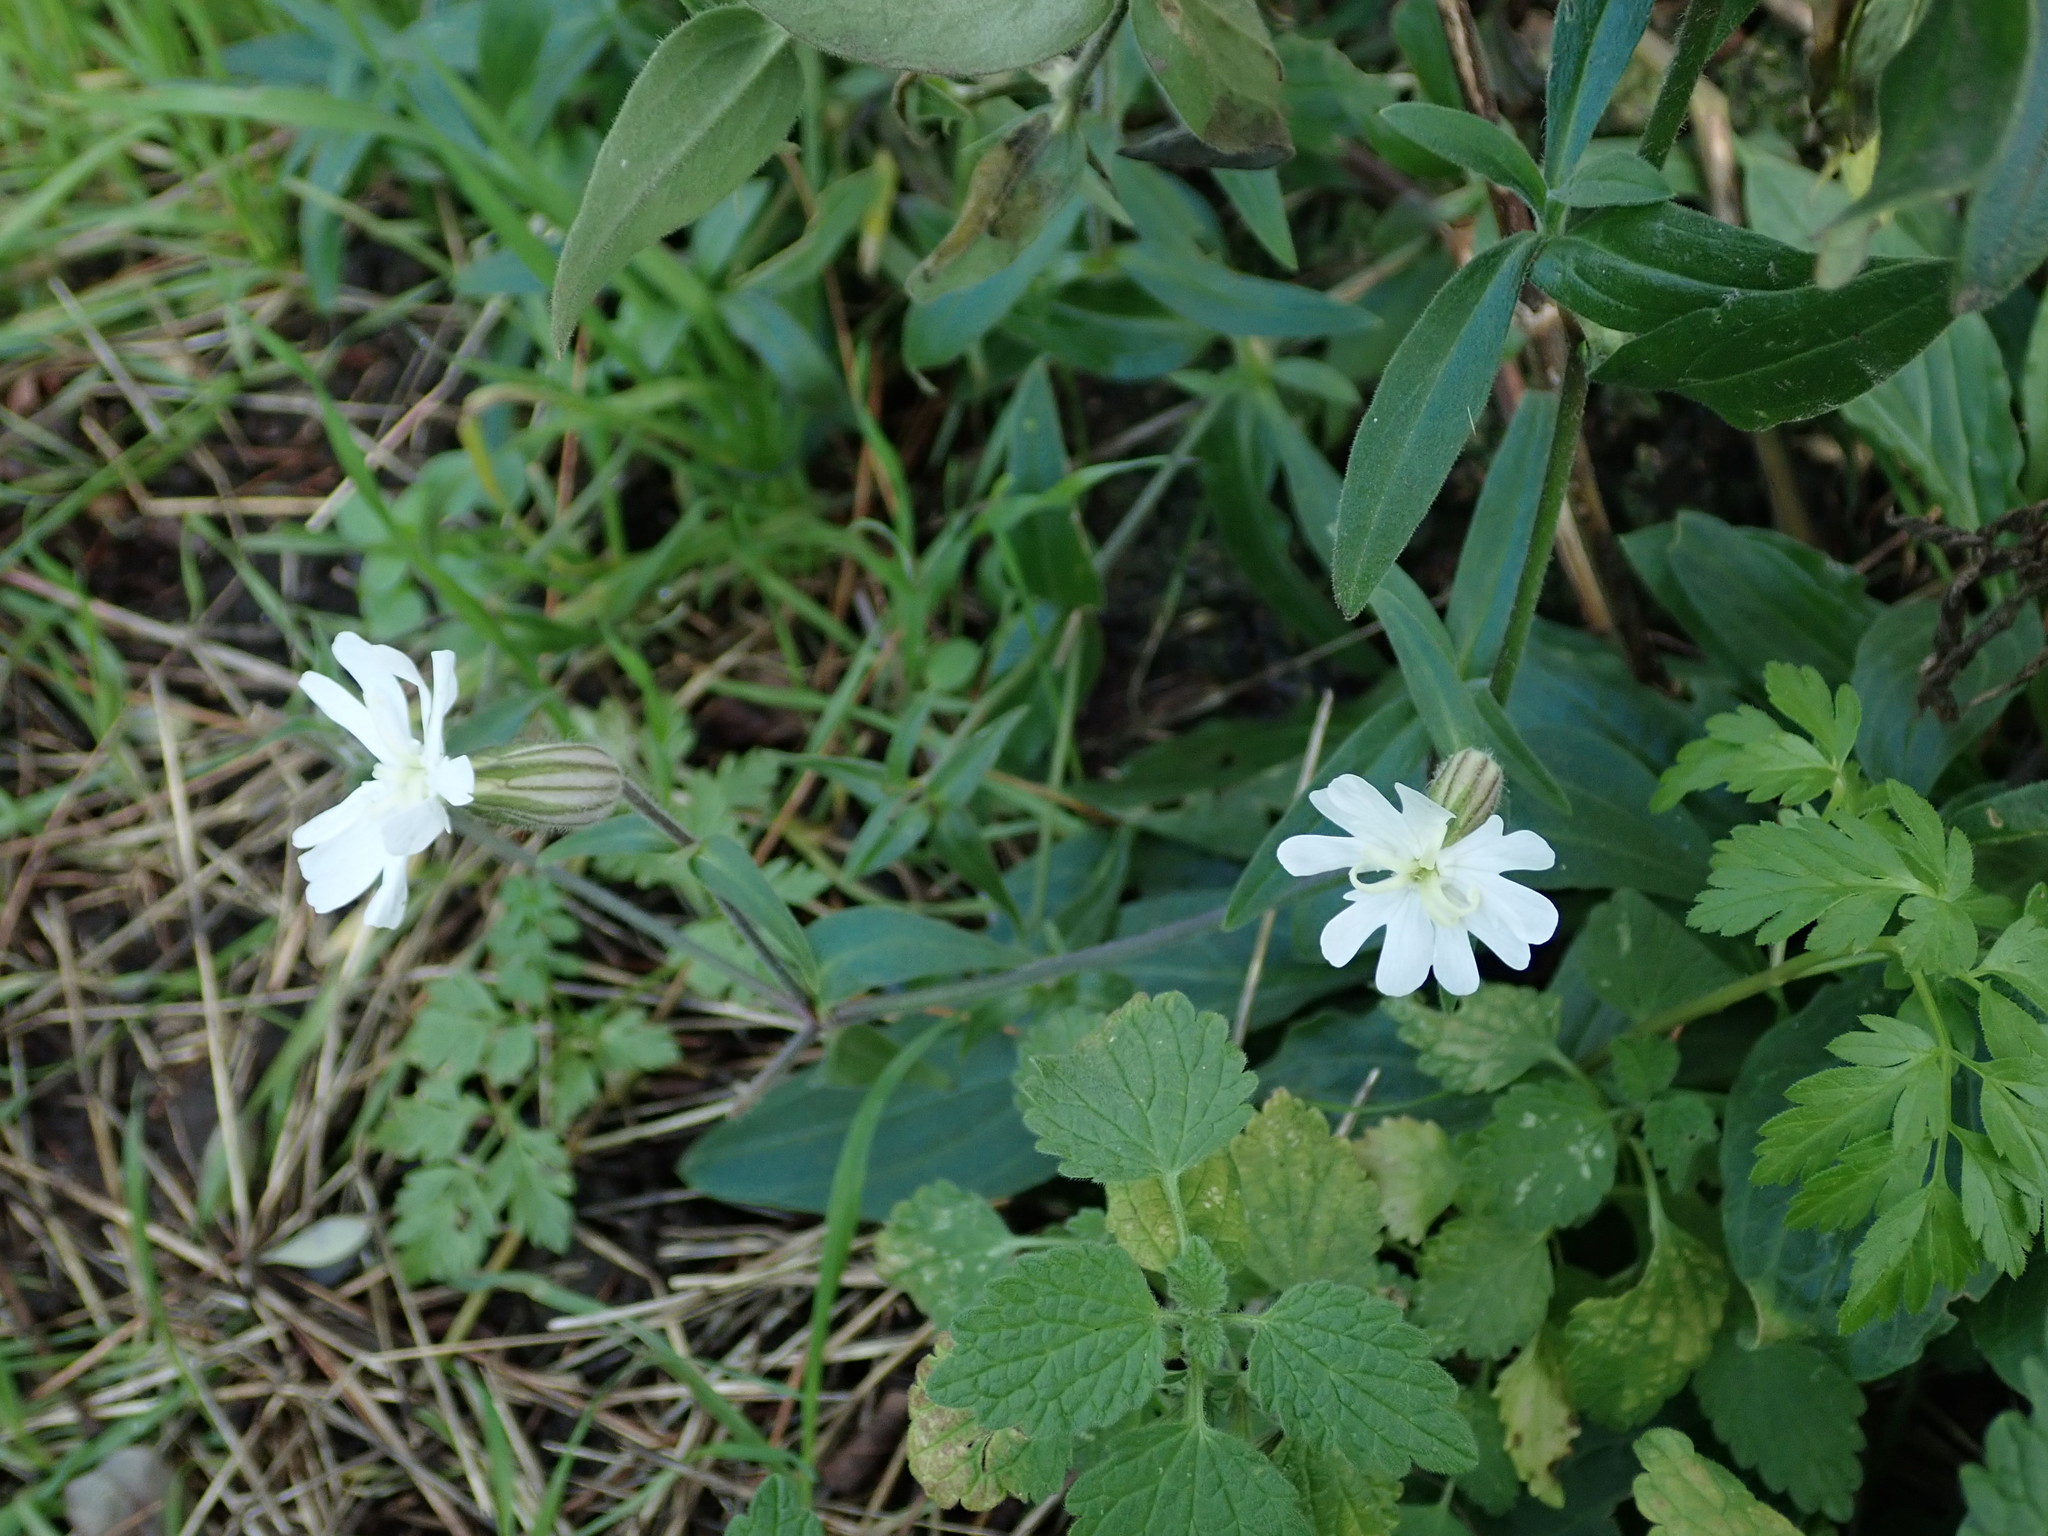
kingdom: Plantae
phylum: Tracheophyta
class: Magnoliopsida
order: Caryophyllales
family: Caryophyllaceae
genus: Silene
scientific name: Silene latifolia
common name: White campion
